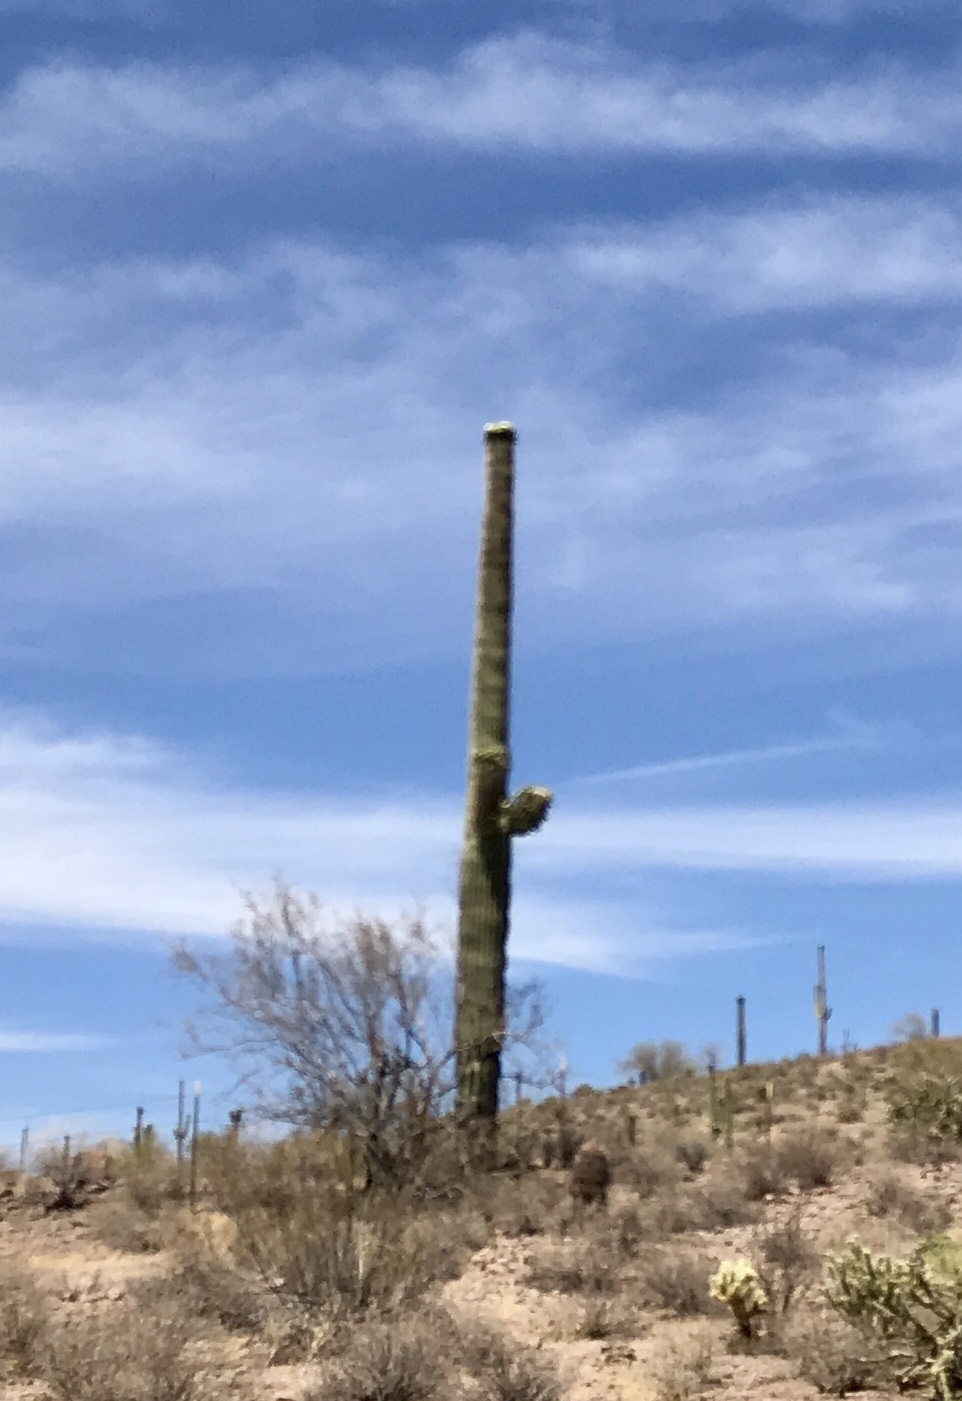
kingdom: Plantae
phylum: Tracheophyta
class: Magnoliopsida
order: Caryophyllales
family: Cactaceae
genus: Carnegiea
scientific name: Carnegiea gigantea
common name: Saguaro
